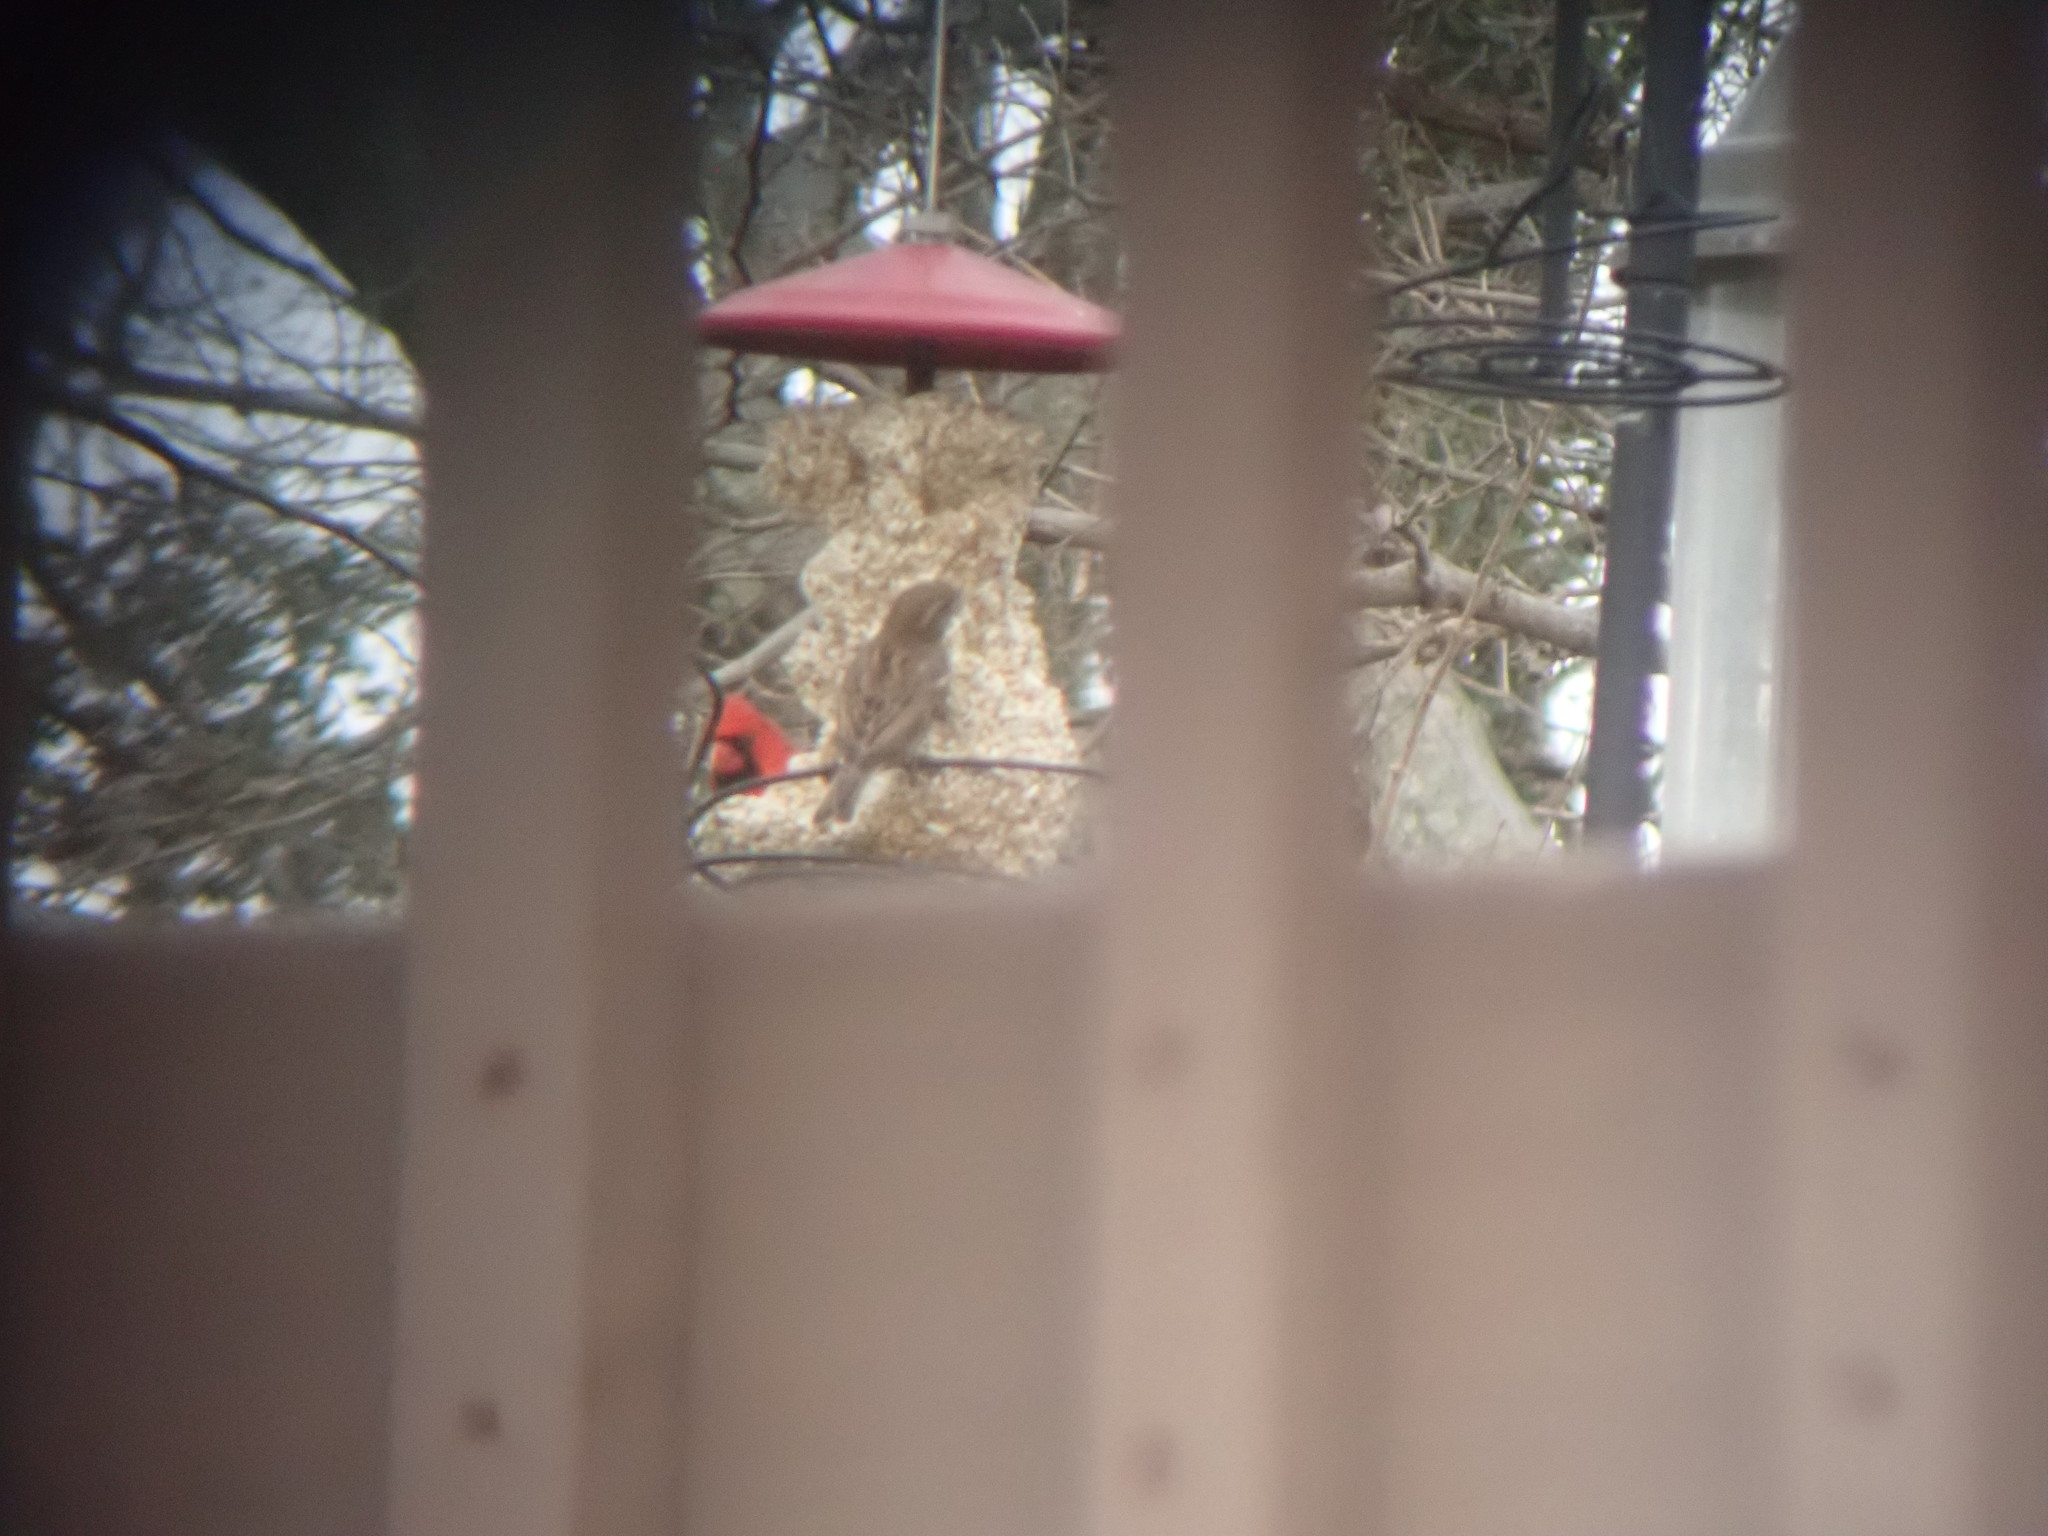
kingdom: Animalia
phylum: Chordata
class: Aves
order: Passeriformes
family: Passeridae
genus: Passer
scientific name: Passer domesticus
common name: House sparrow
